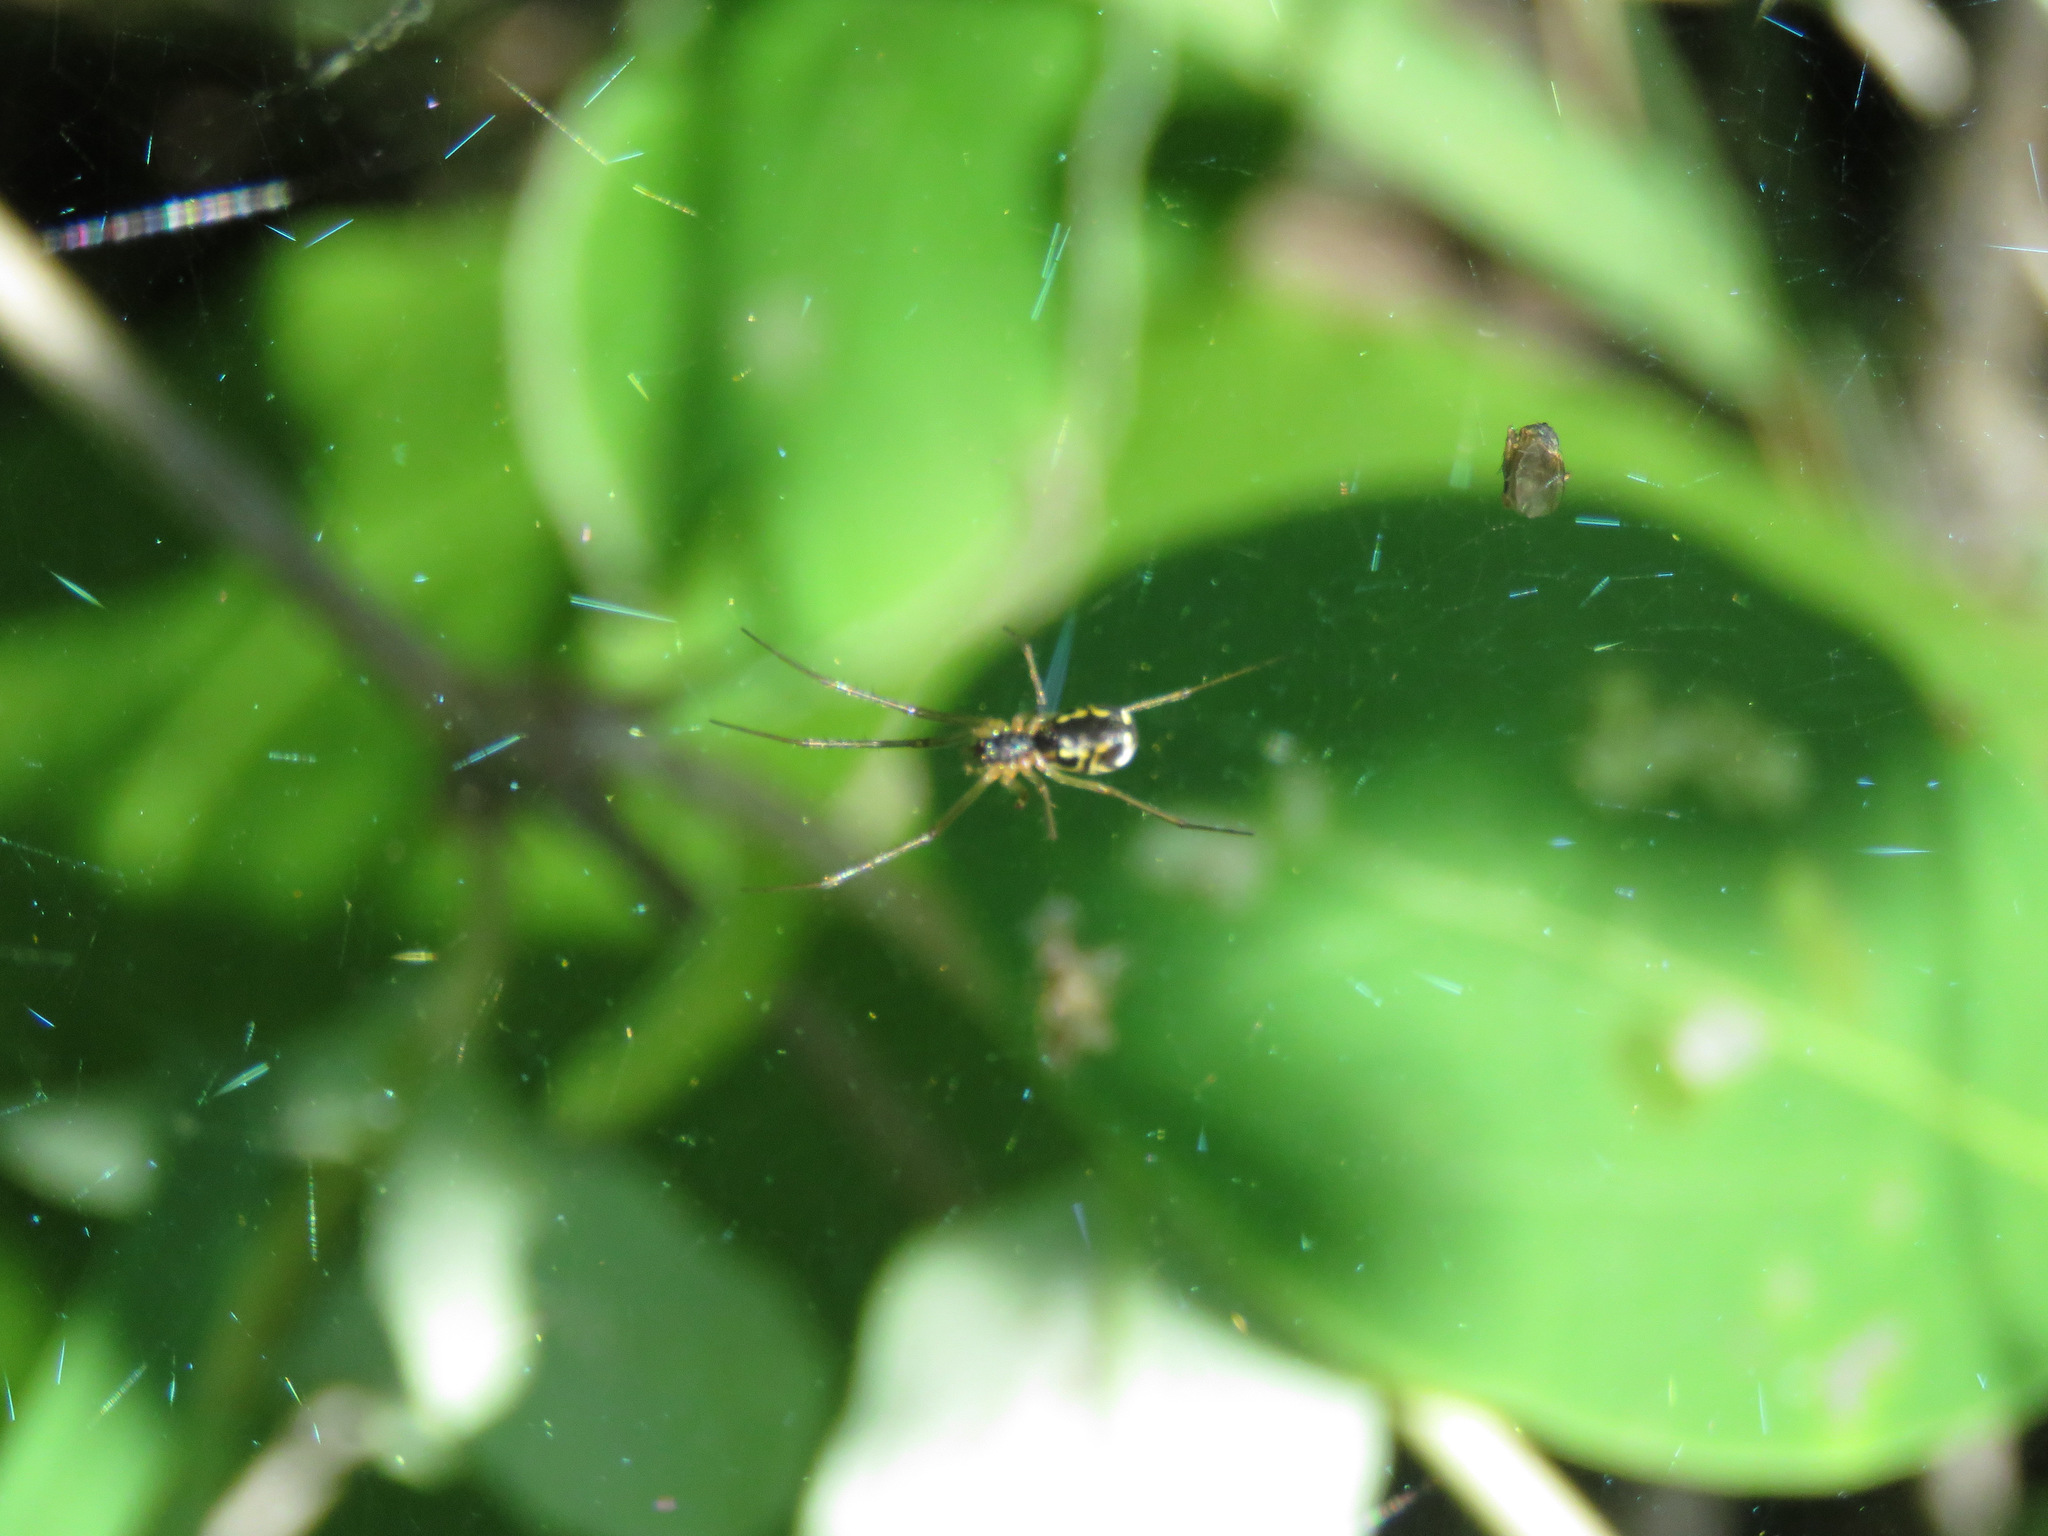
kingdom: Animalia
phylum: Arthropoda
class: Arachnida
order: Araneae
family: Linyphiidae
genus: Neriene
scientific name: Neriene radiata
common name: Filmy dome spider
